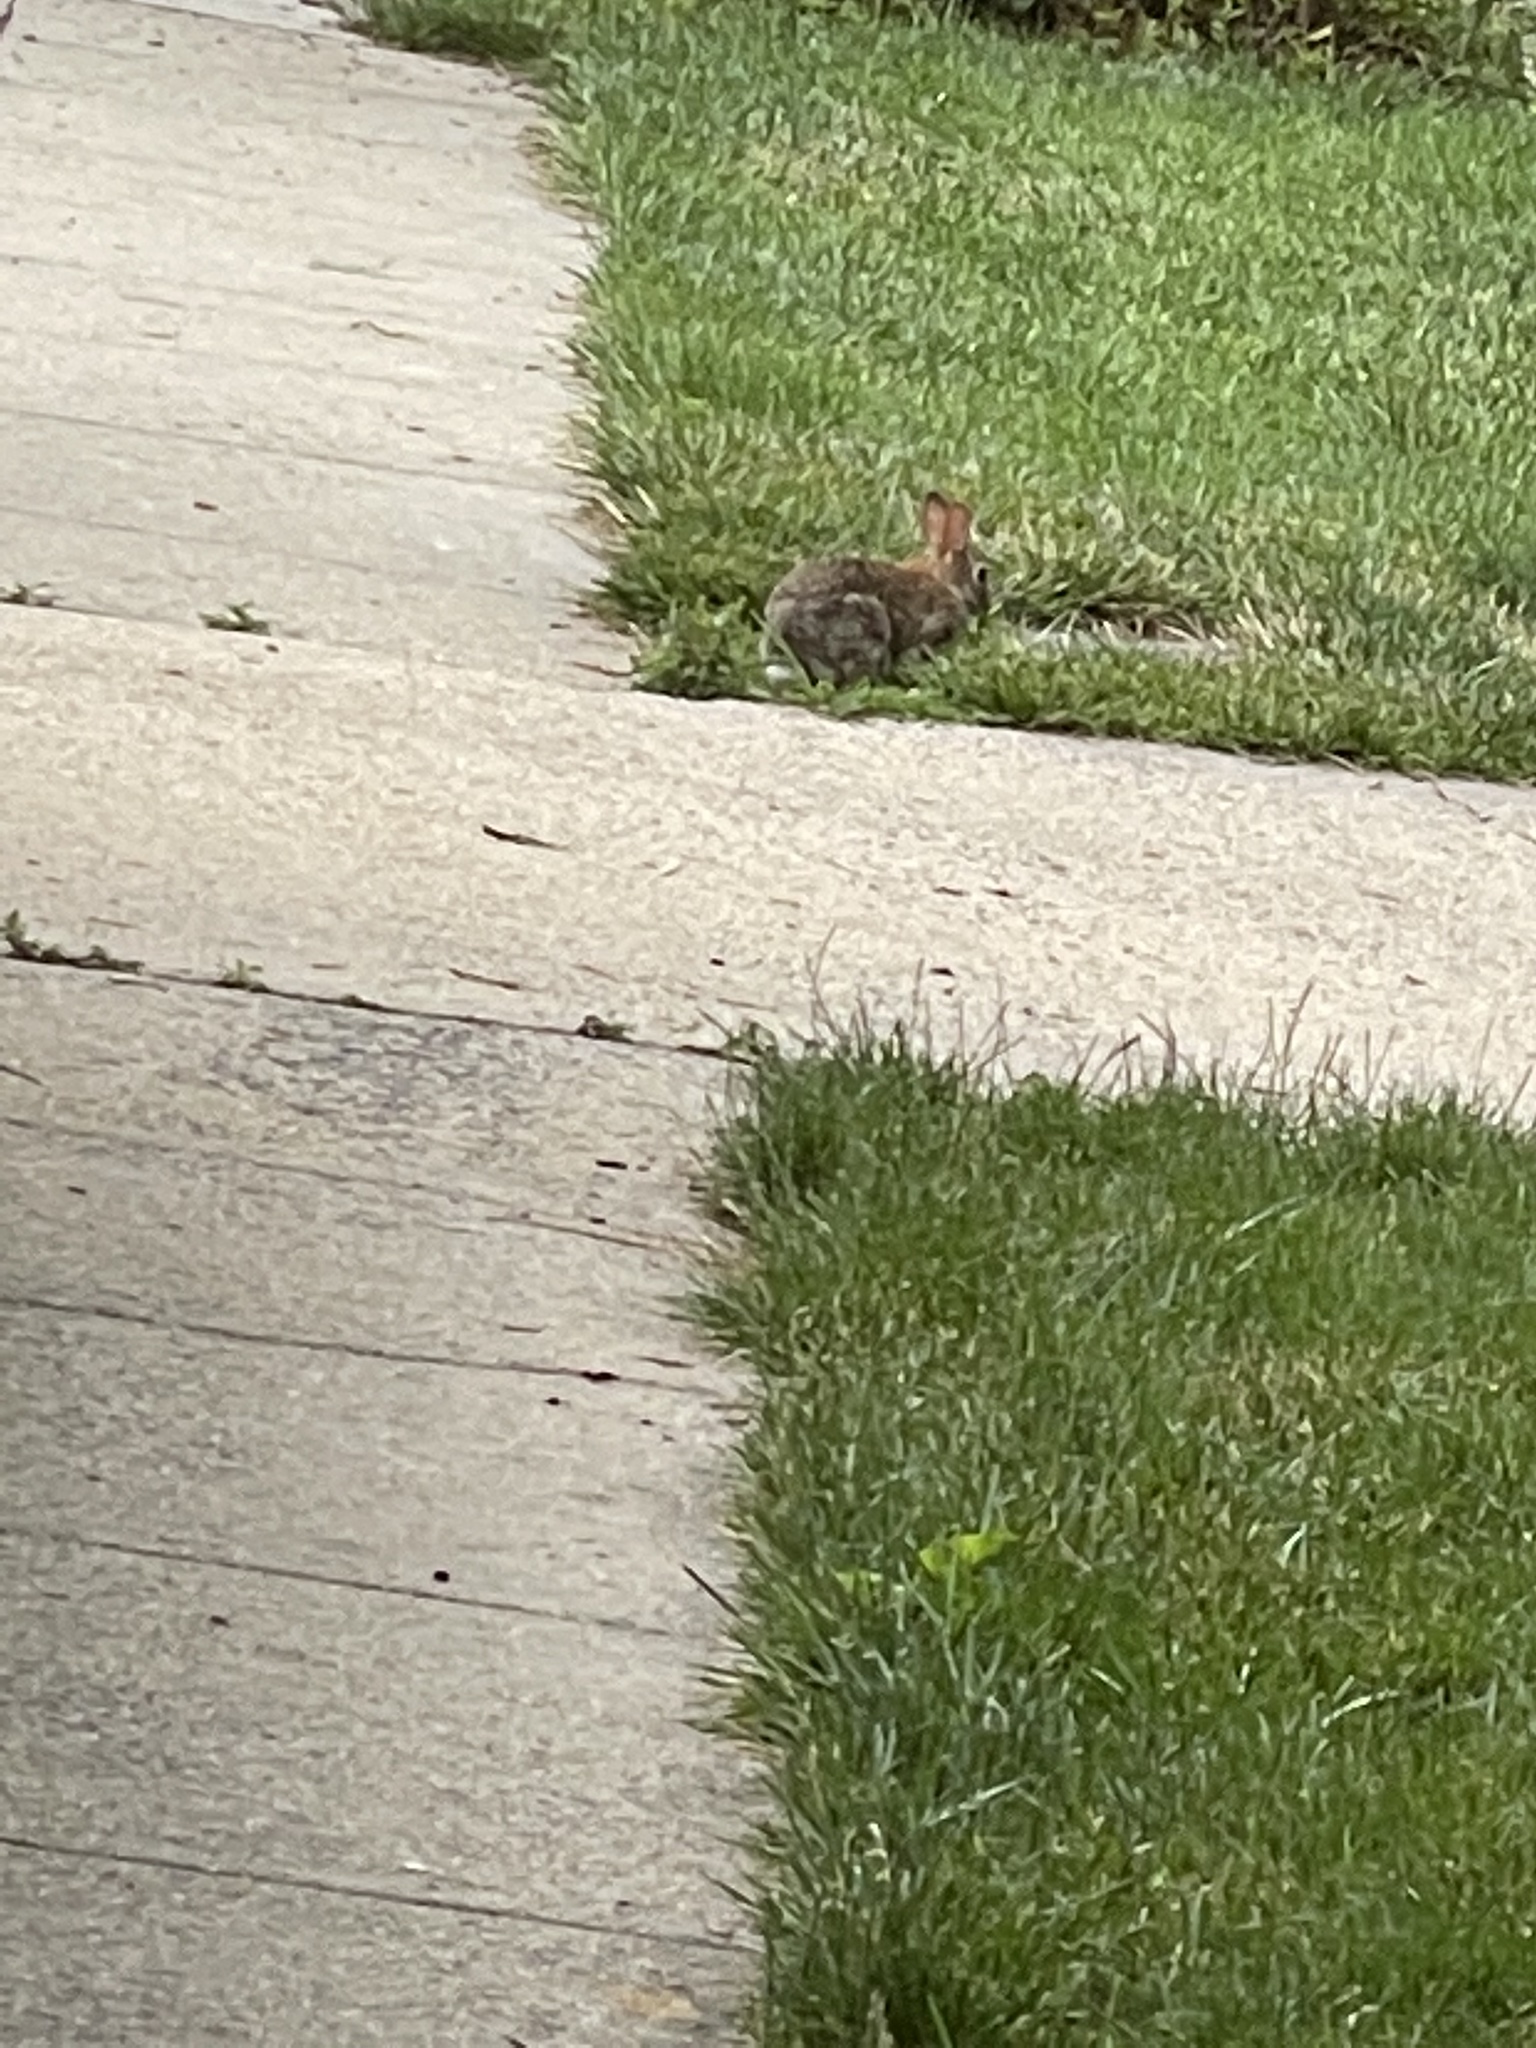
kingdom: Animalia
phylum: Chordata
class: Mammalia
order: Lagomorpha
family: Leporidae
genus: Sylvilagus
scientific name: Sylvilagus floridanus
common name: Eastern cottontail
